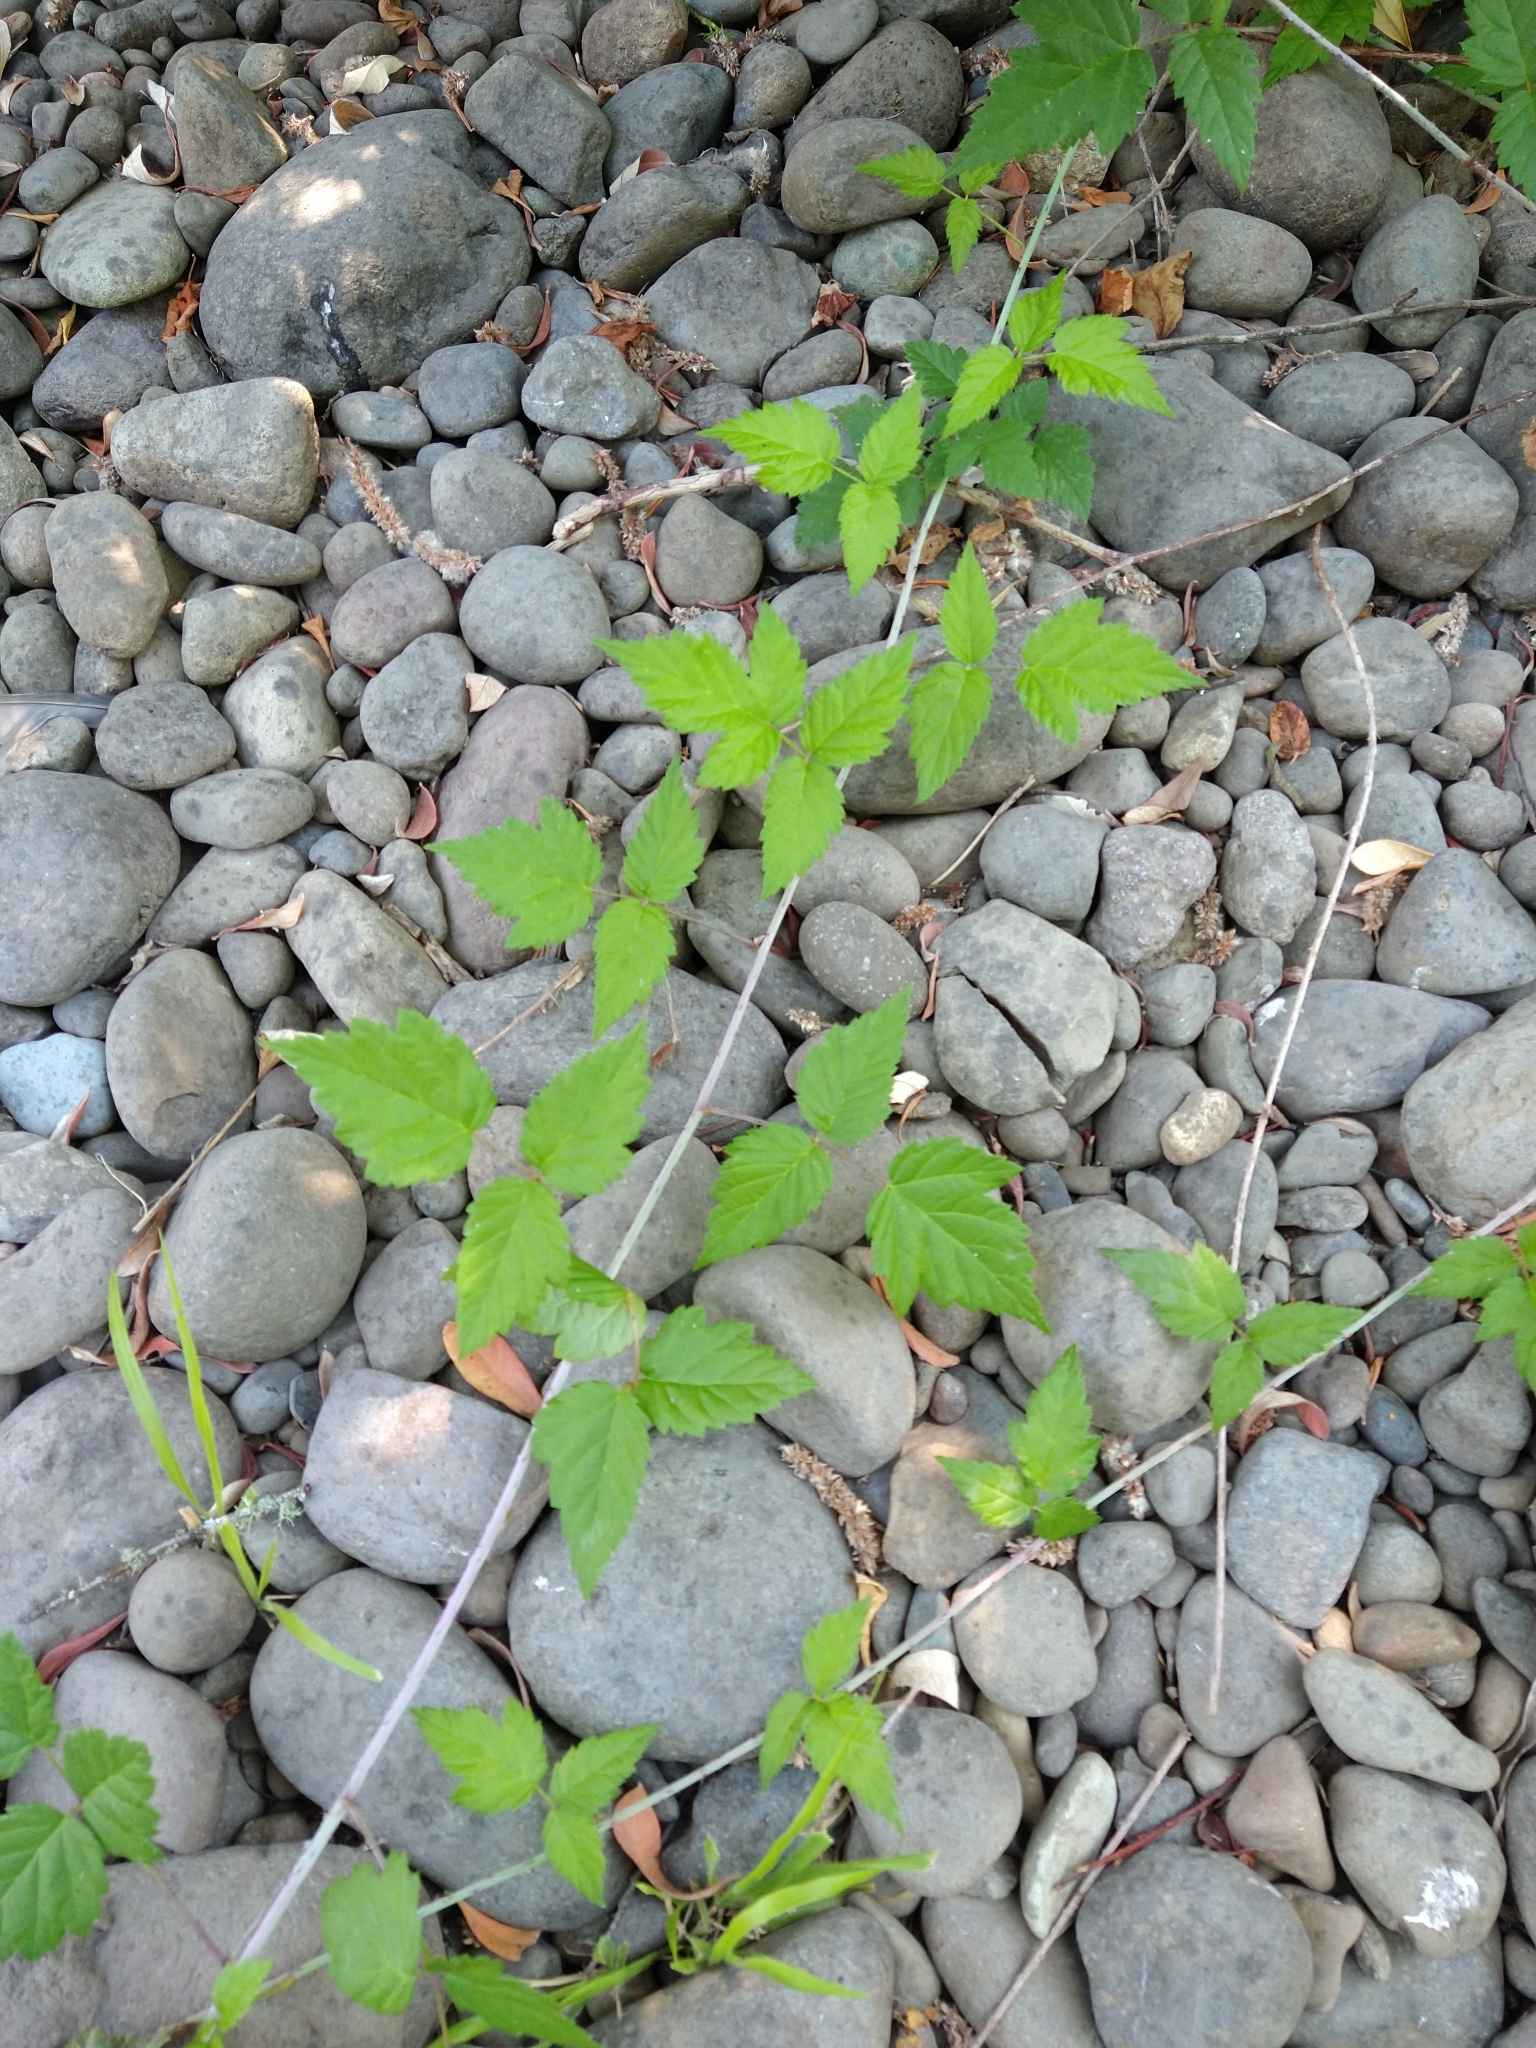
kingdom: Plantae
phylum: Tracheophyta
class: Magnoliopsida
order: Rosales
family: Rosaceae
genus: Rubus
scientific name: Rubus ursinus
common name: Pacific blackberry
